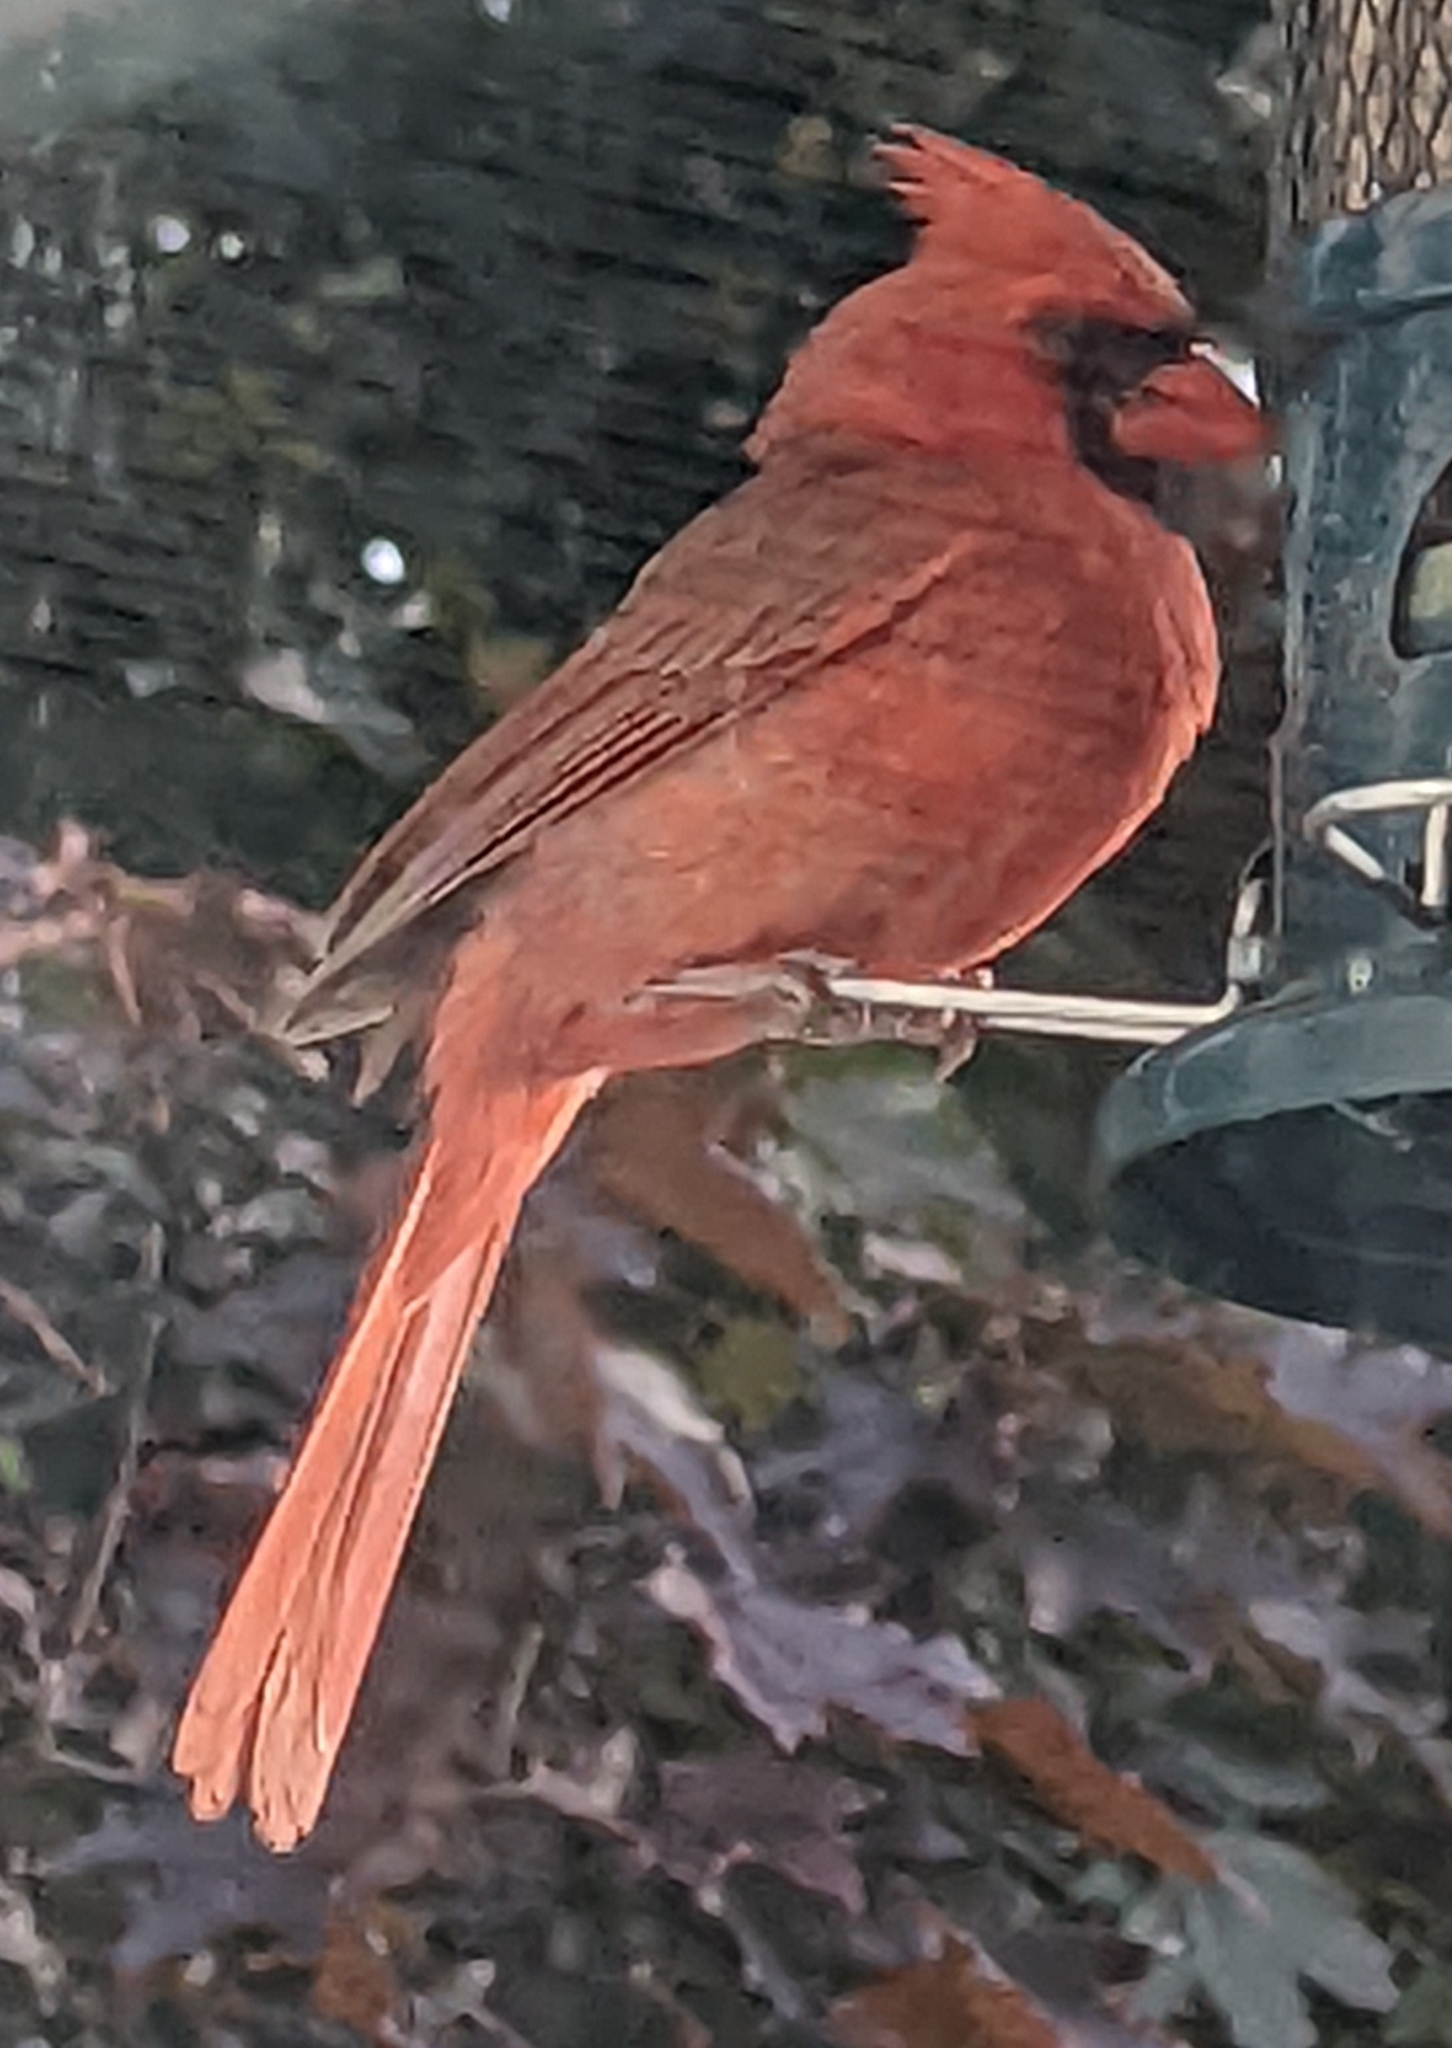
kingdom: Animalia
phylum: Chordata
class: Aves
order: Passeriformes
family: Cardinalidae
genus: Cardinalis
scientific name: Cardinalis cardinalis
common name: Northern cardinal
